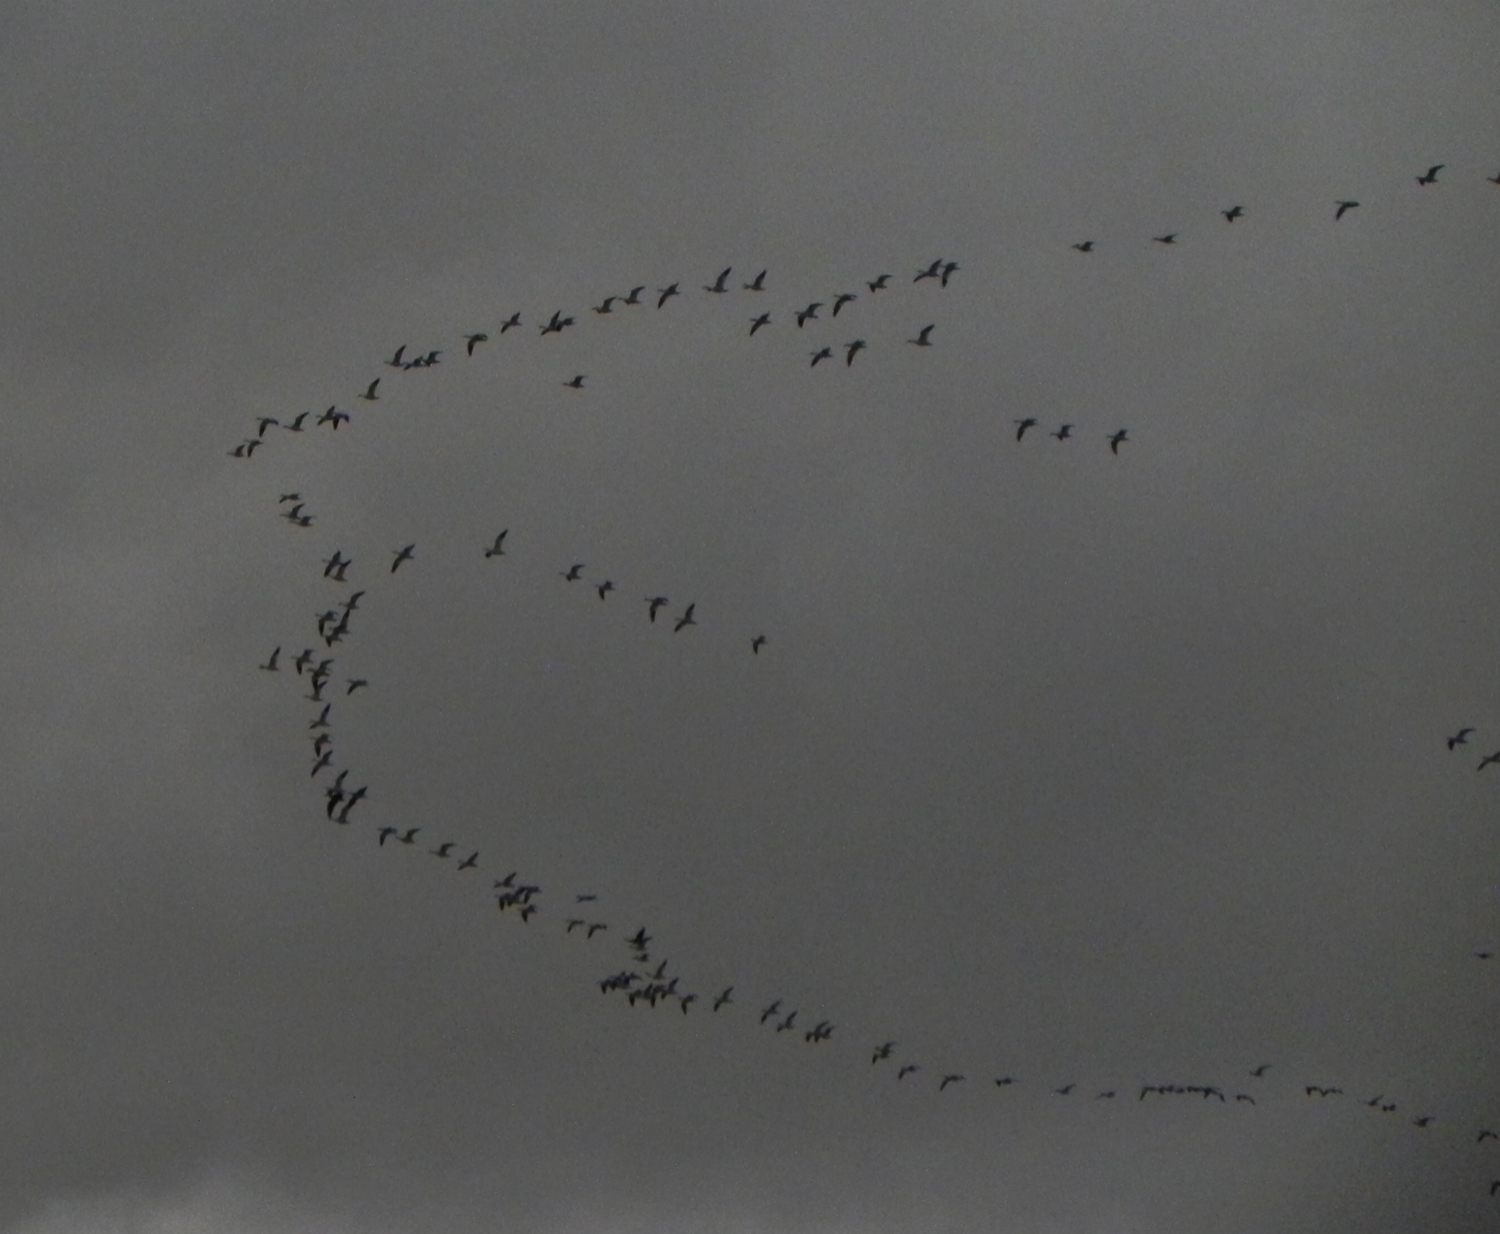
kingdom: Animalia
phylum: Chordata
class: Aves
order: Anseriformes
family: Anatidae
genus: Anser
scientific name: Anser caerulescens
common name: Snow goose
